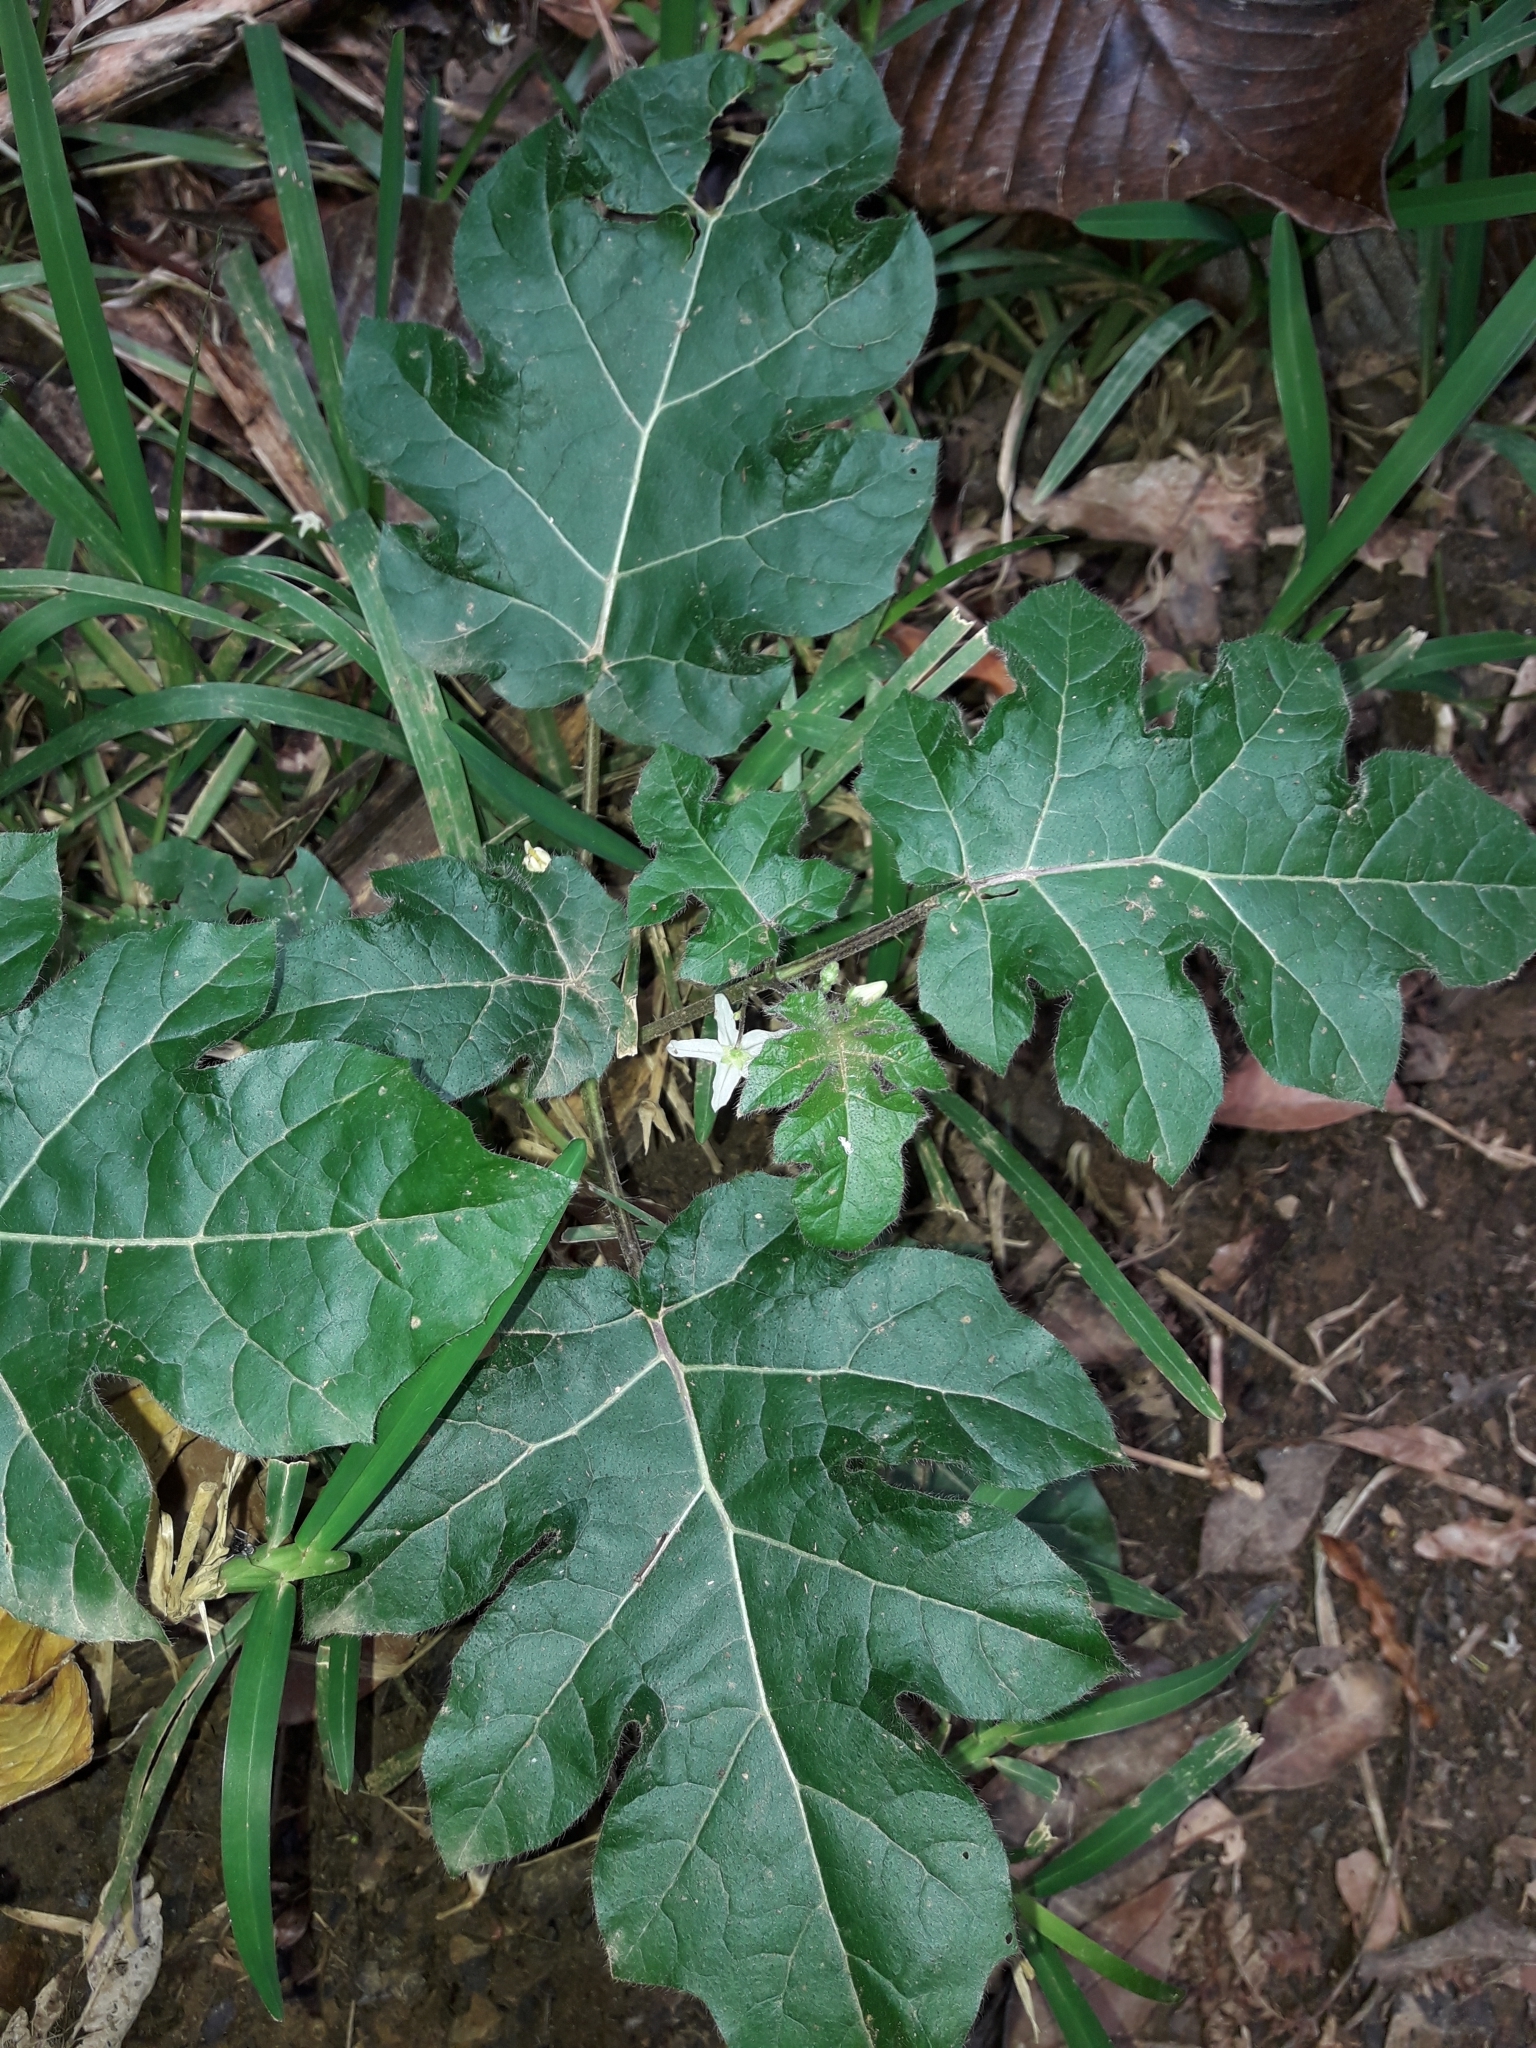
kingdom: Plantae
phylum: Tracheophyta
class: Magnoliopsida
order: Solanales
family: Solanaceae
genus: Solanum
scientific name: Solanum capsicoides
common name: Cockroach berry
